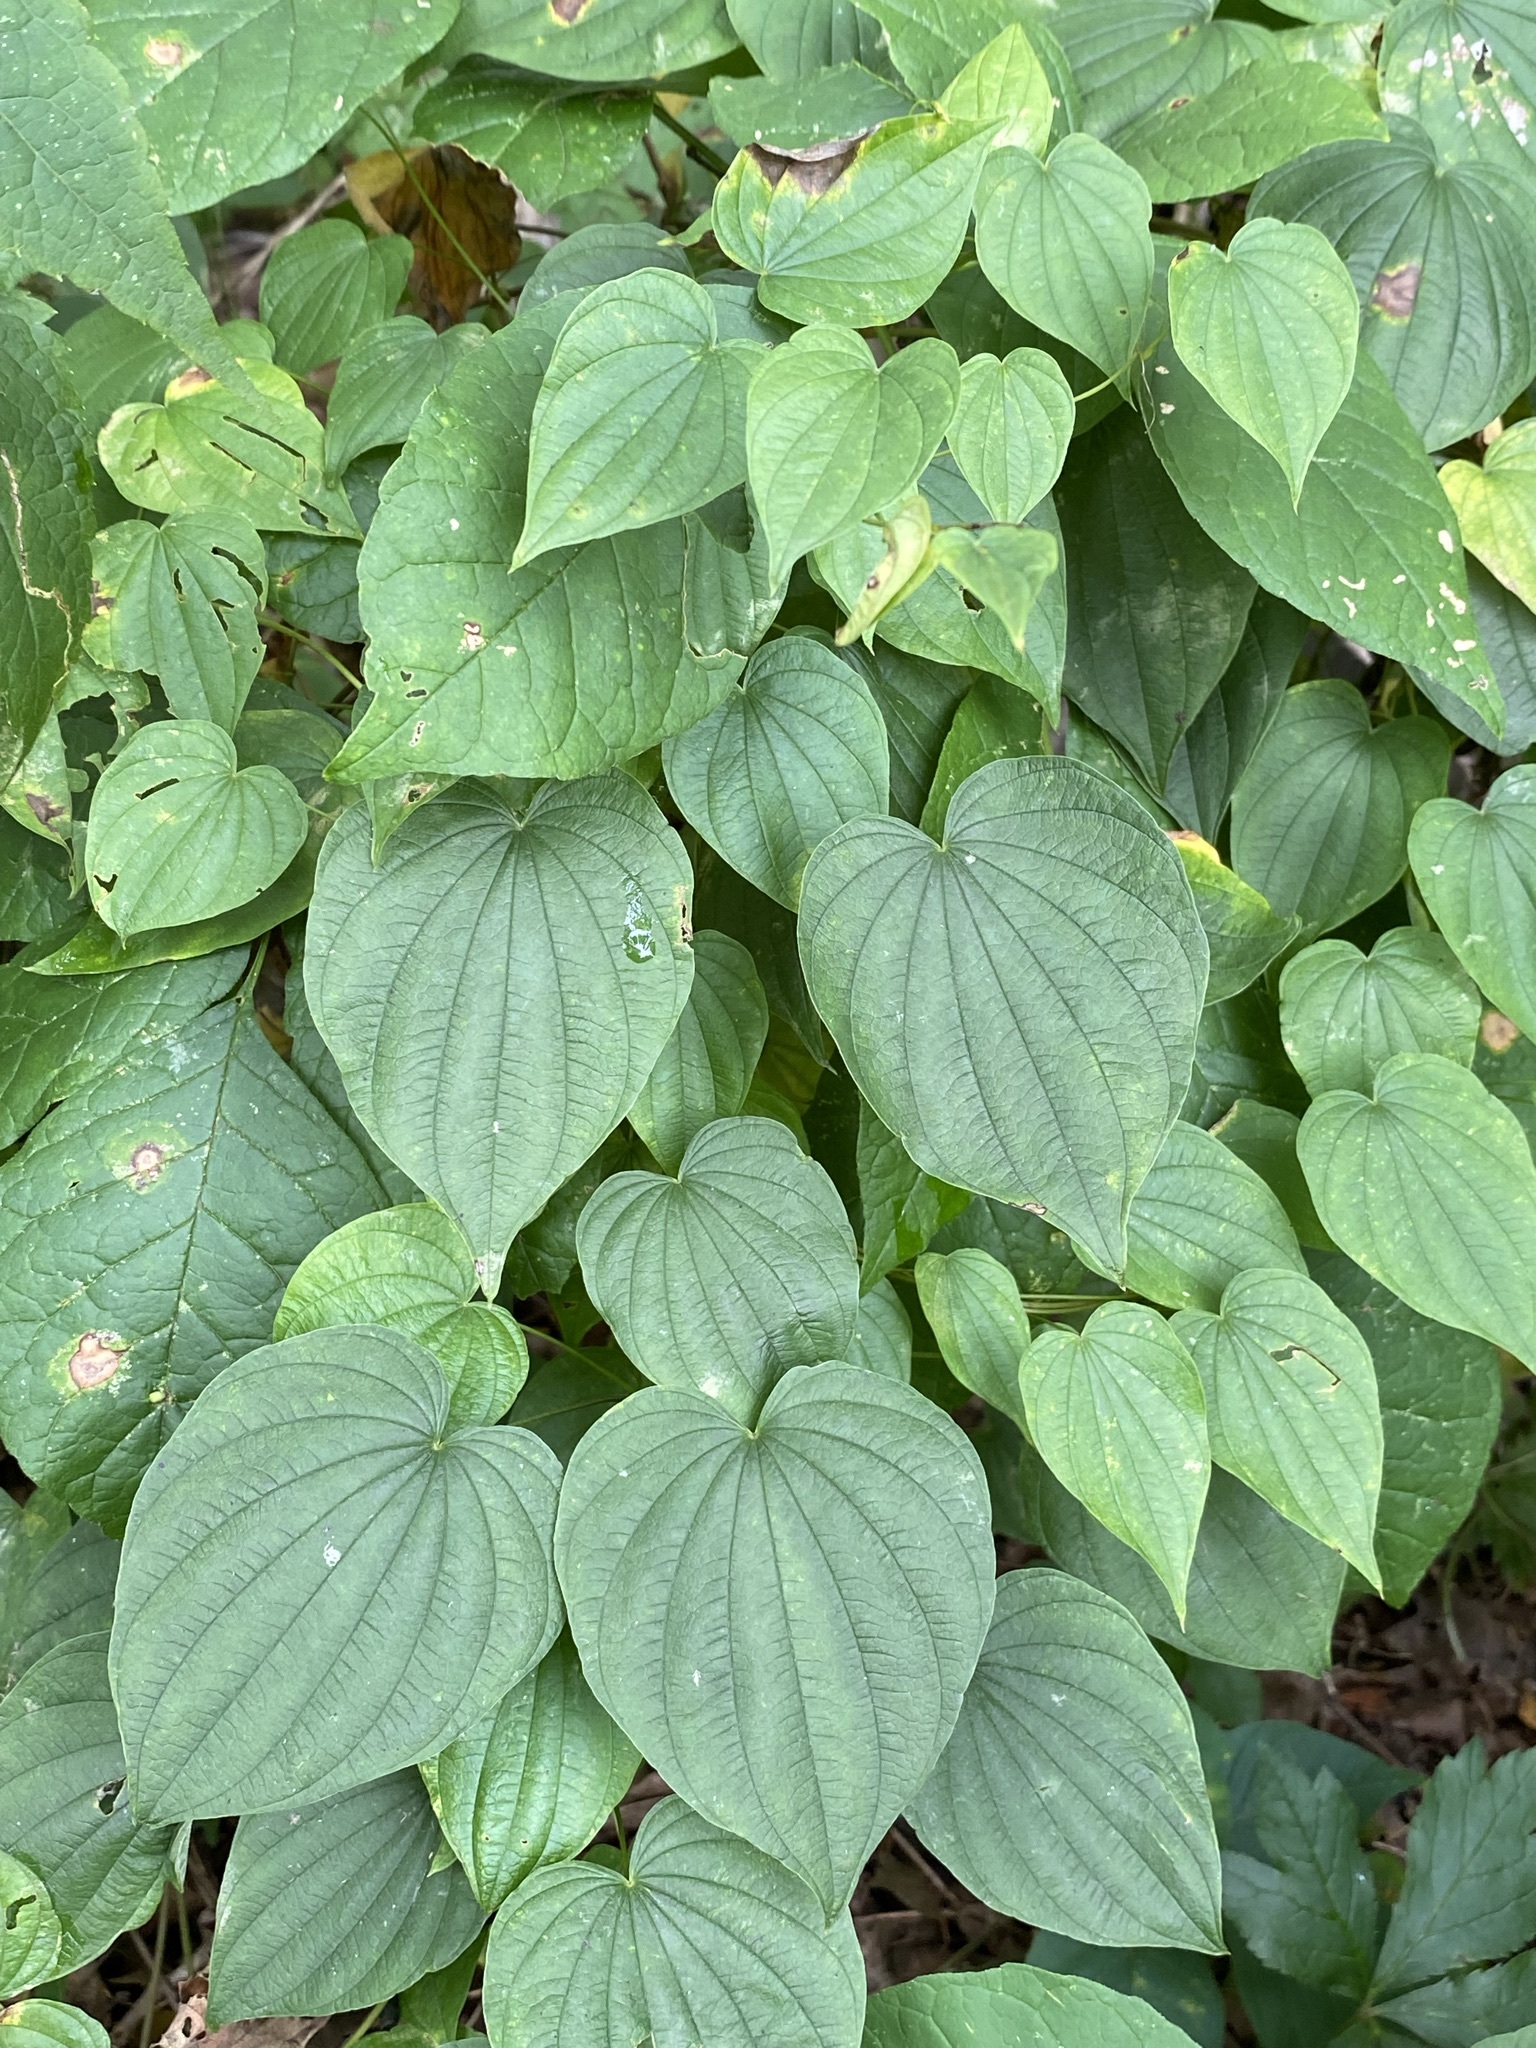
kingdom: Plantae
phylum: Tracheophyta
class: Liliopsida
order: Dioscoreales
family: Dioscoreaceae
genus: Dioscorea
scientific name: Dioscorea villosa
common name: Wild yam
